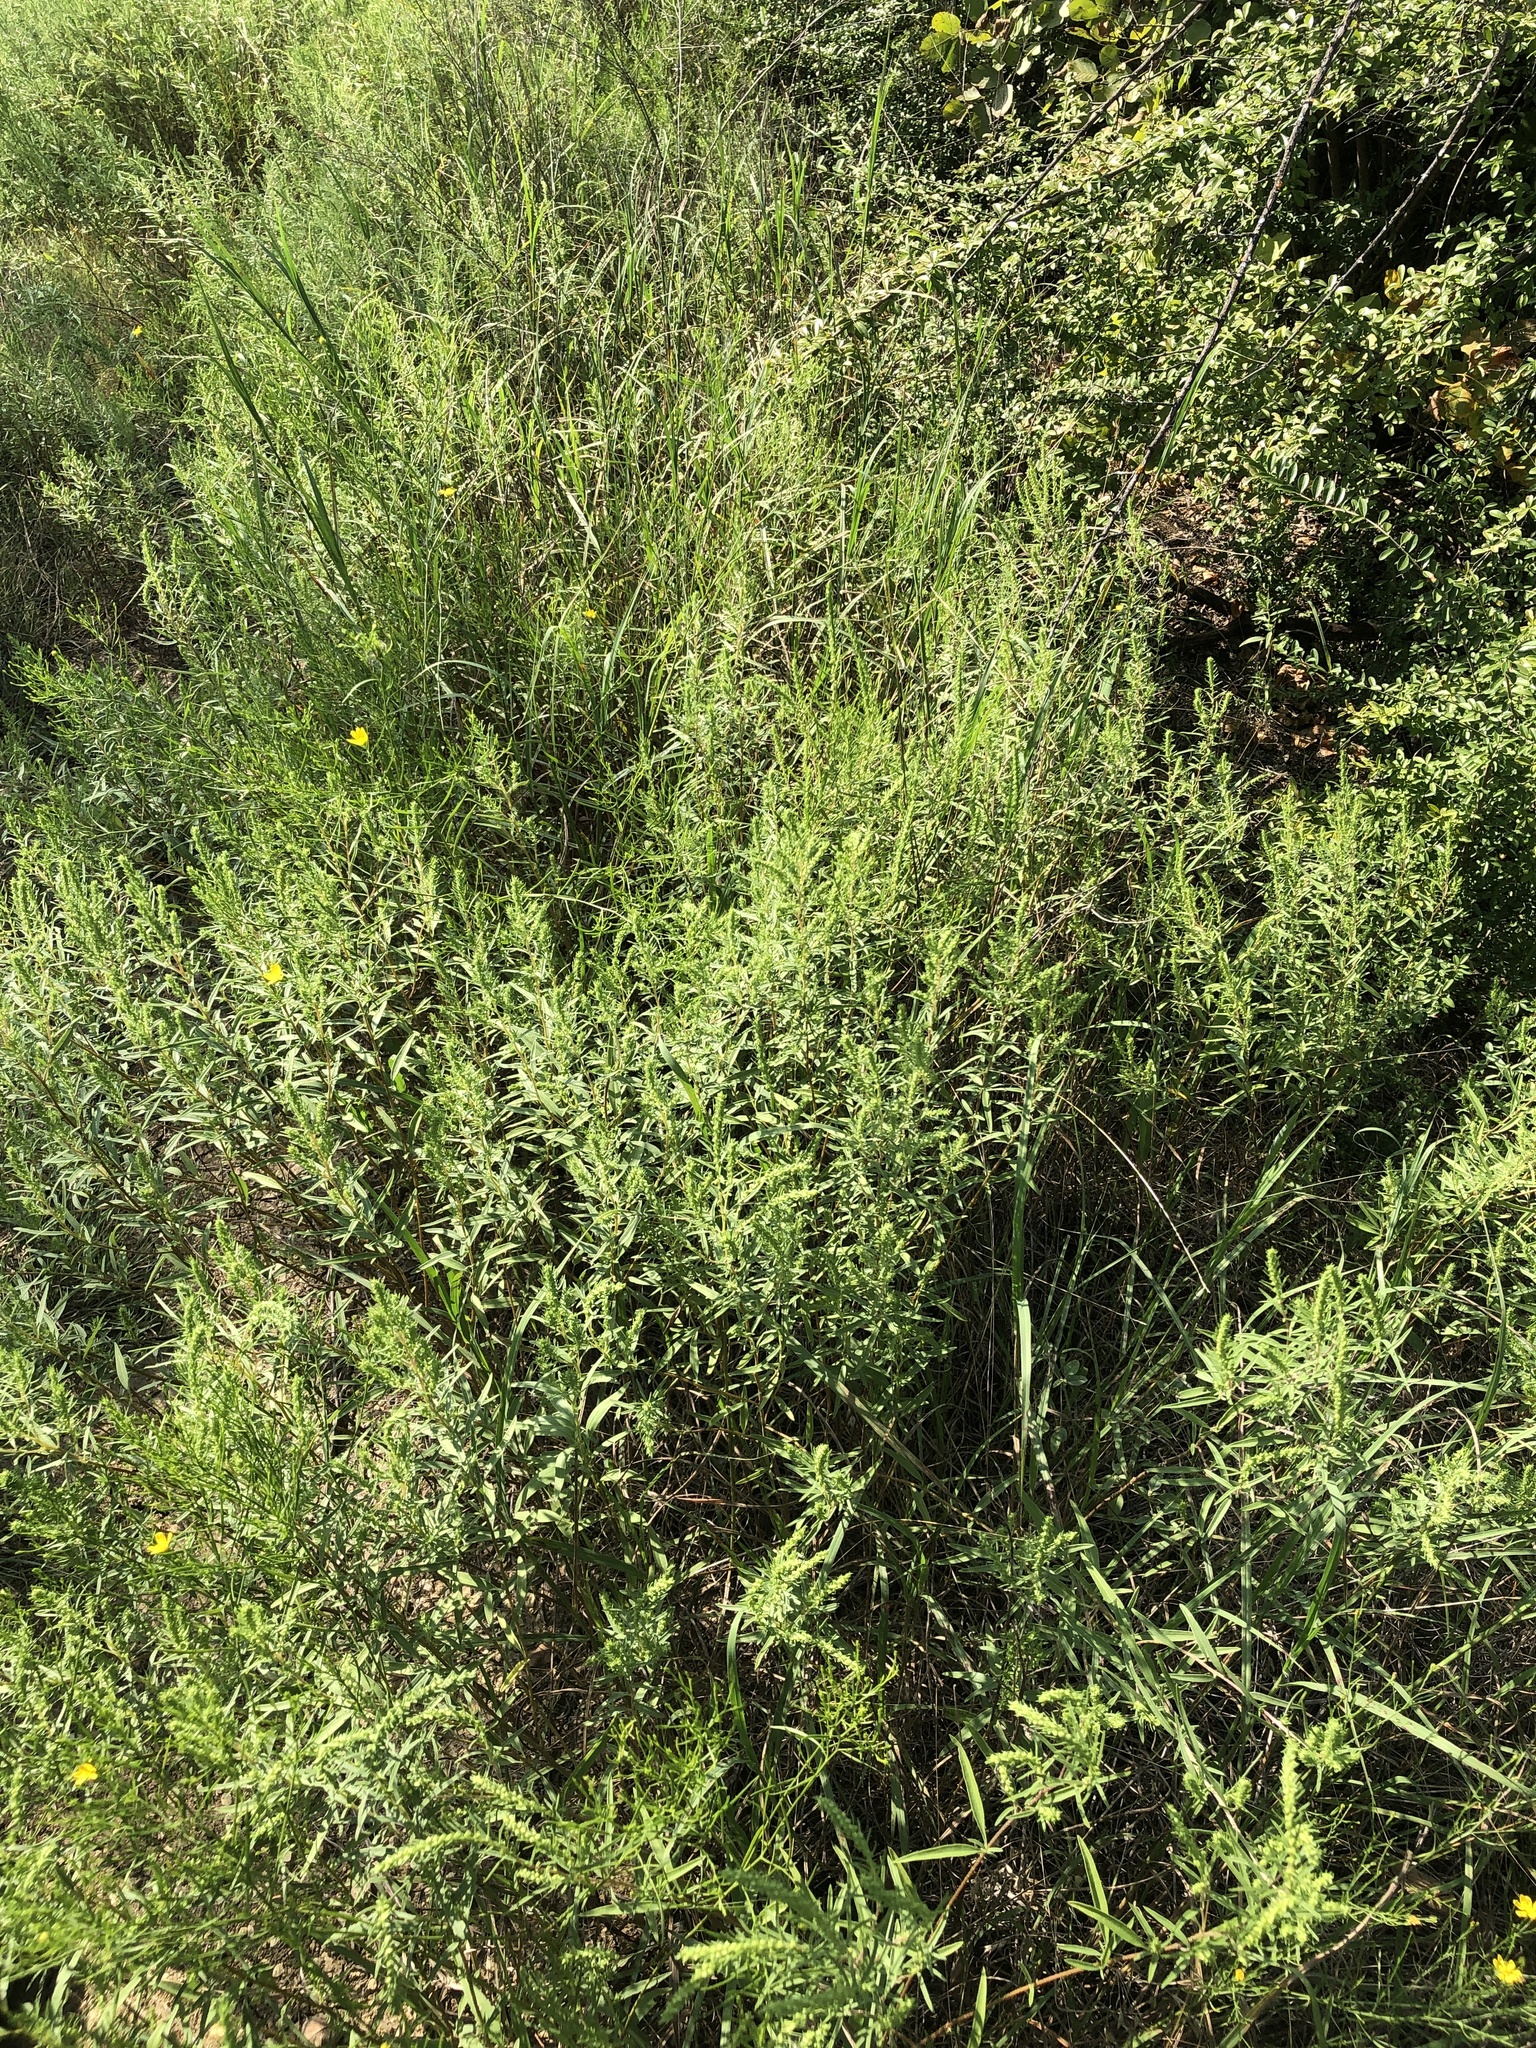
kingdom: Plantae
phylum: Tracheophyta
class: Magnoliopsida
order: Asterales
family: Asteraceae
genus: Iva
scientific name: Iva asperifolia
